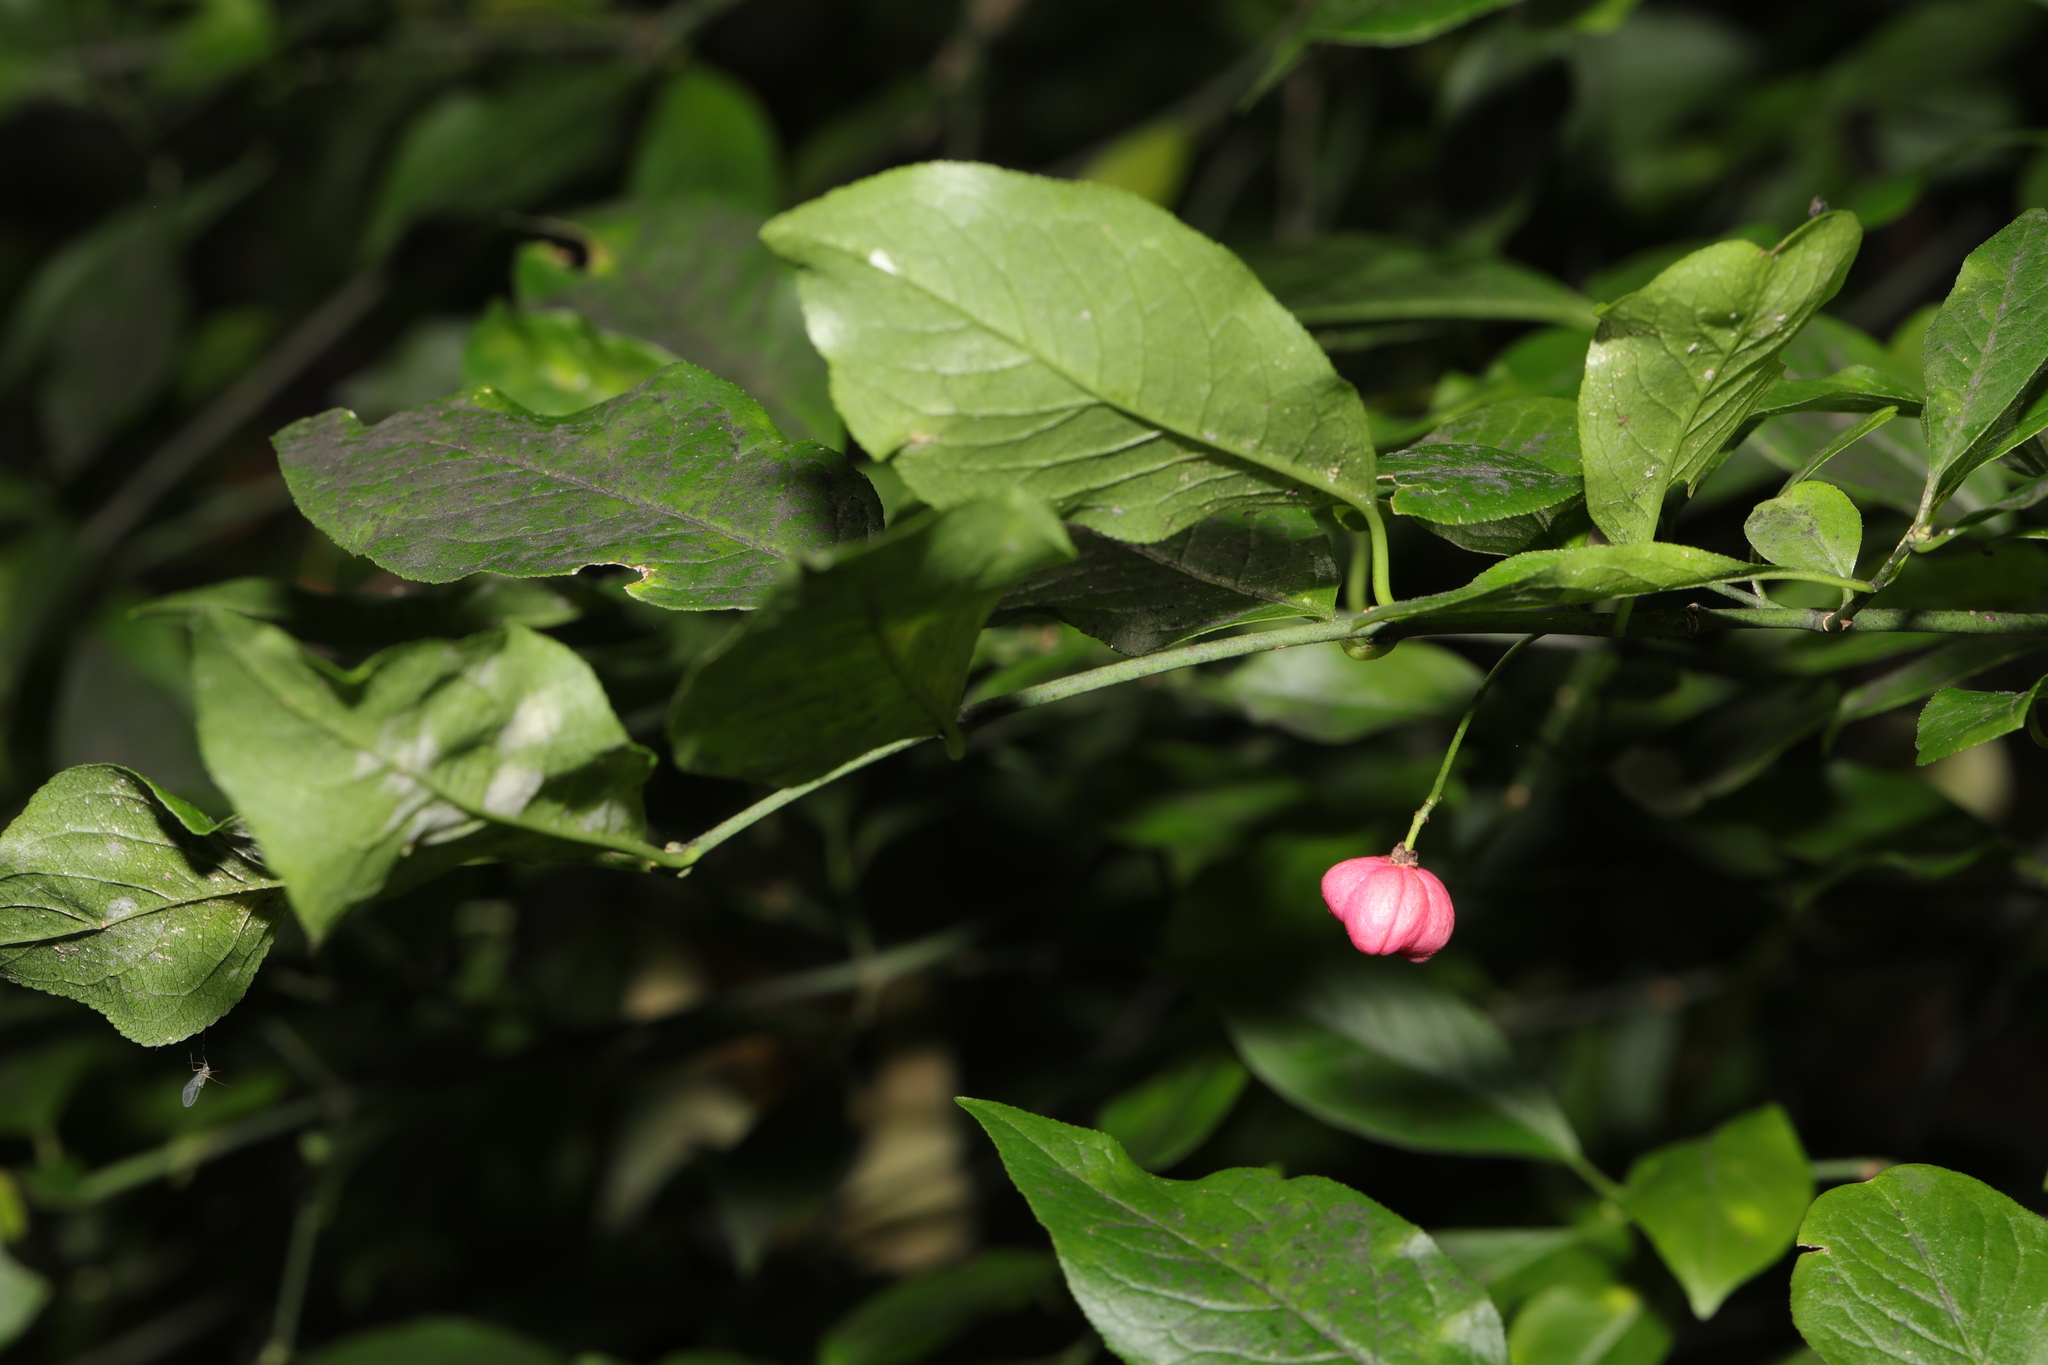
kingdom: Plantae
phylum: Tracheophyta
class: Magnoliopsida
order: Celastrales
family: Celastraceae
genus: Euonymus
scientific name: Euonymus europaeus
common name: Spindle
